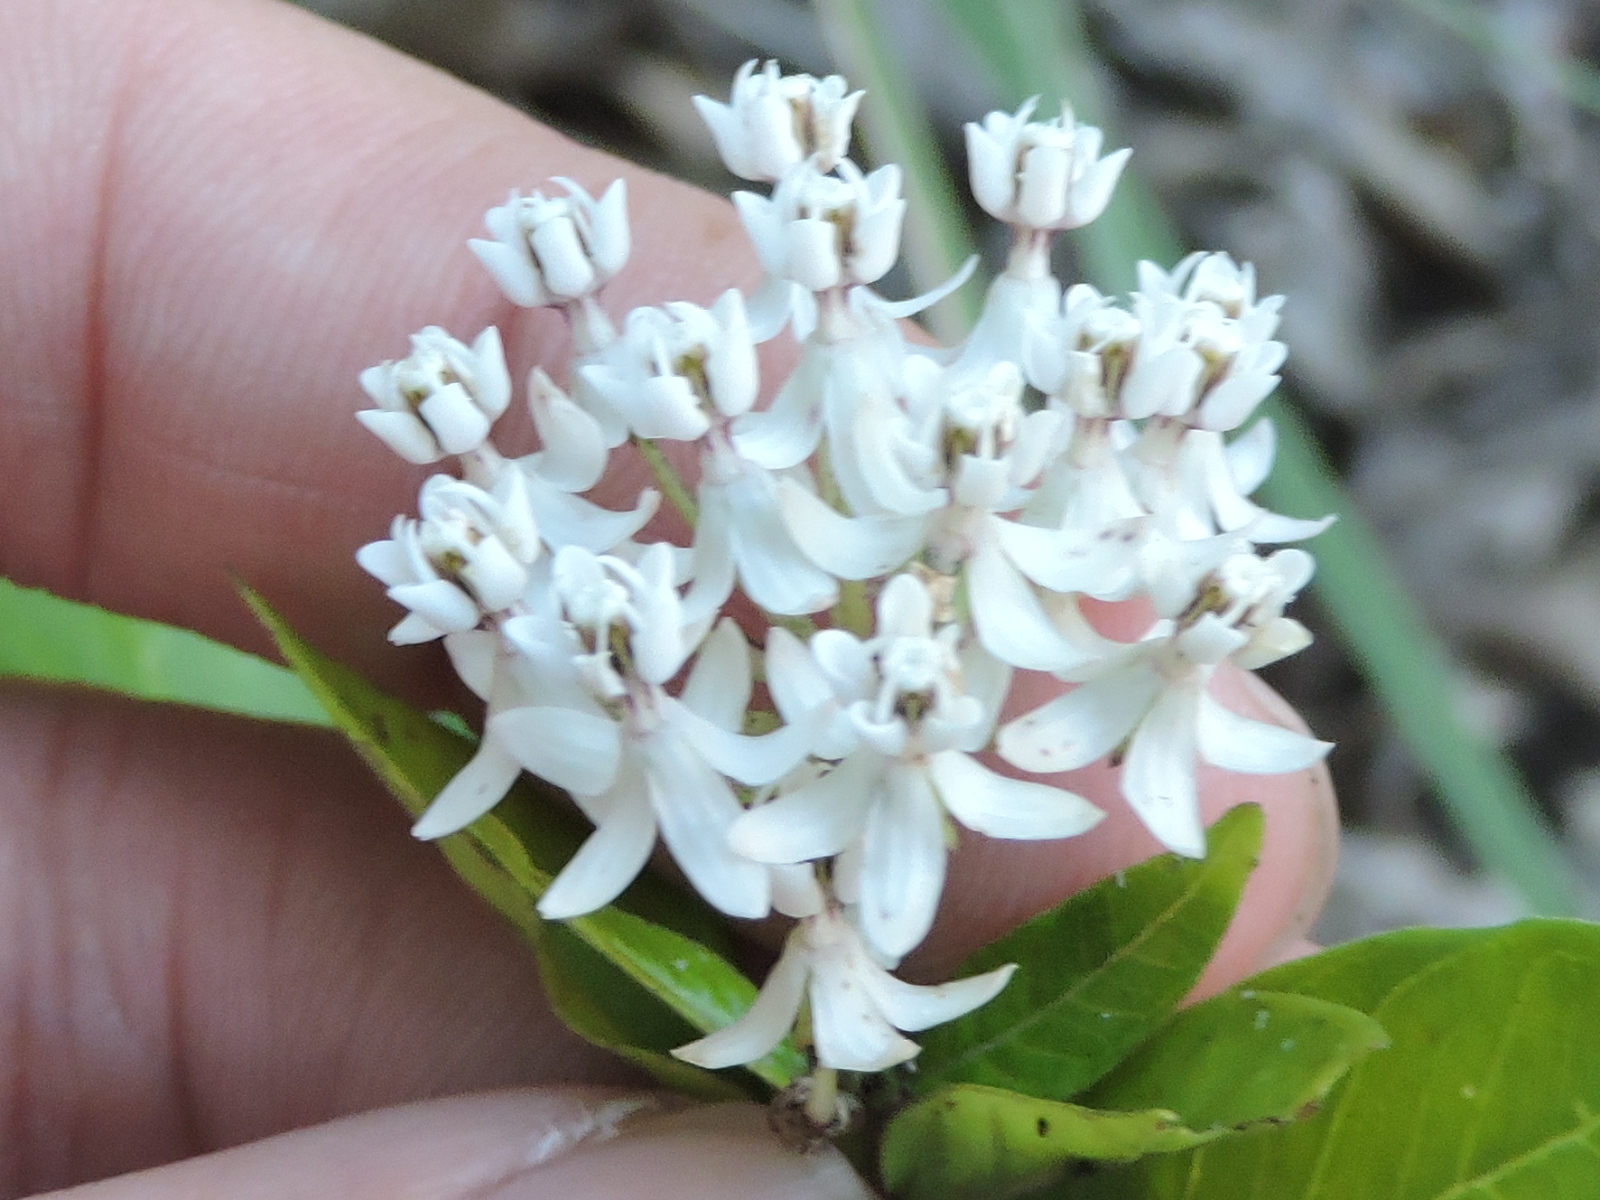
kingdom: Plantae
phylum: Tracheophyta
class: Magnoliopsida
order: Gentianales
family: Apocynaceae
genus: Asclepias
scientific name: Asclepias texana
